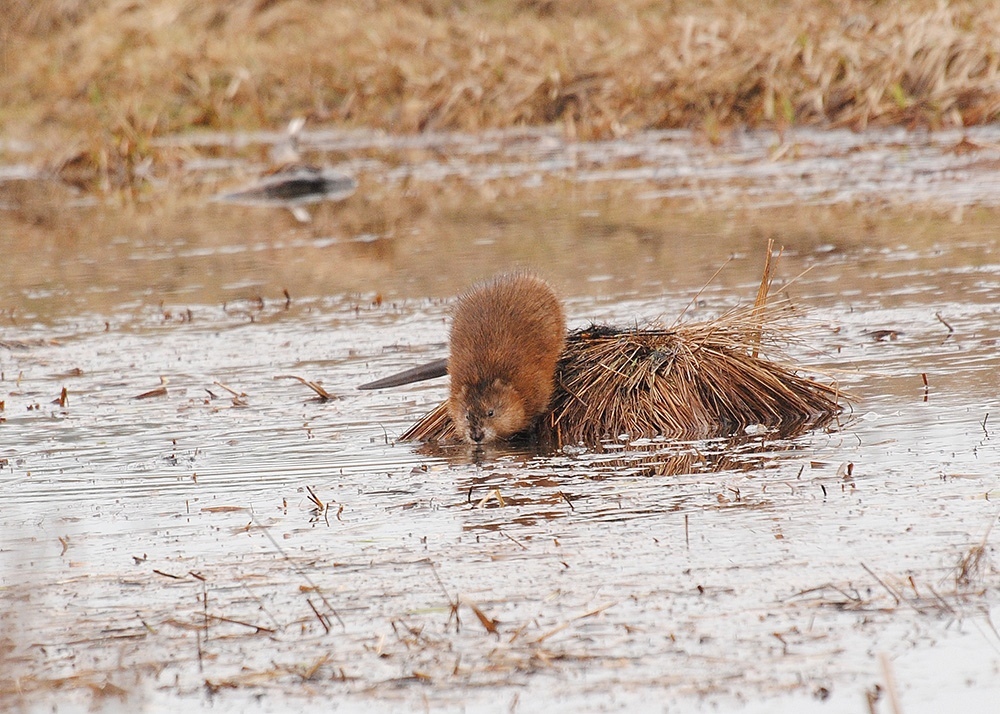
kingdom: Animalia
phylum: Chordata
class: Mammalia
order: Rodentia
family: Cricetidae
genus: Ondatra
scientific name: Ondatra zibethicus
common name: Muskrat
